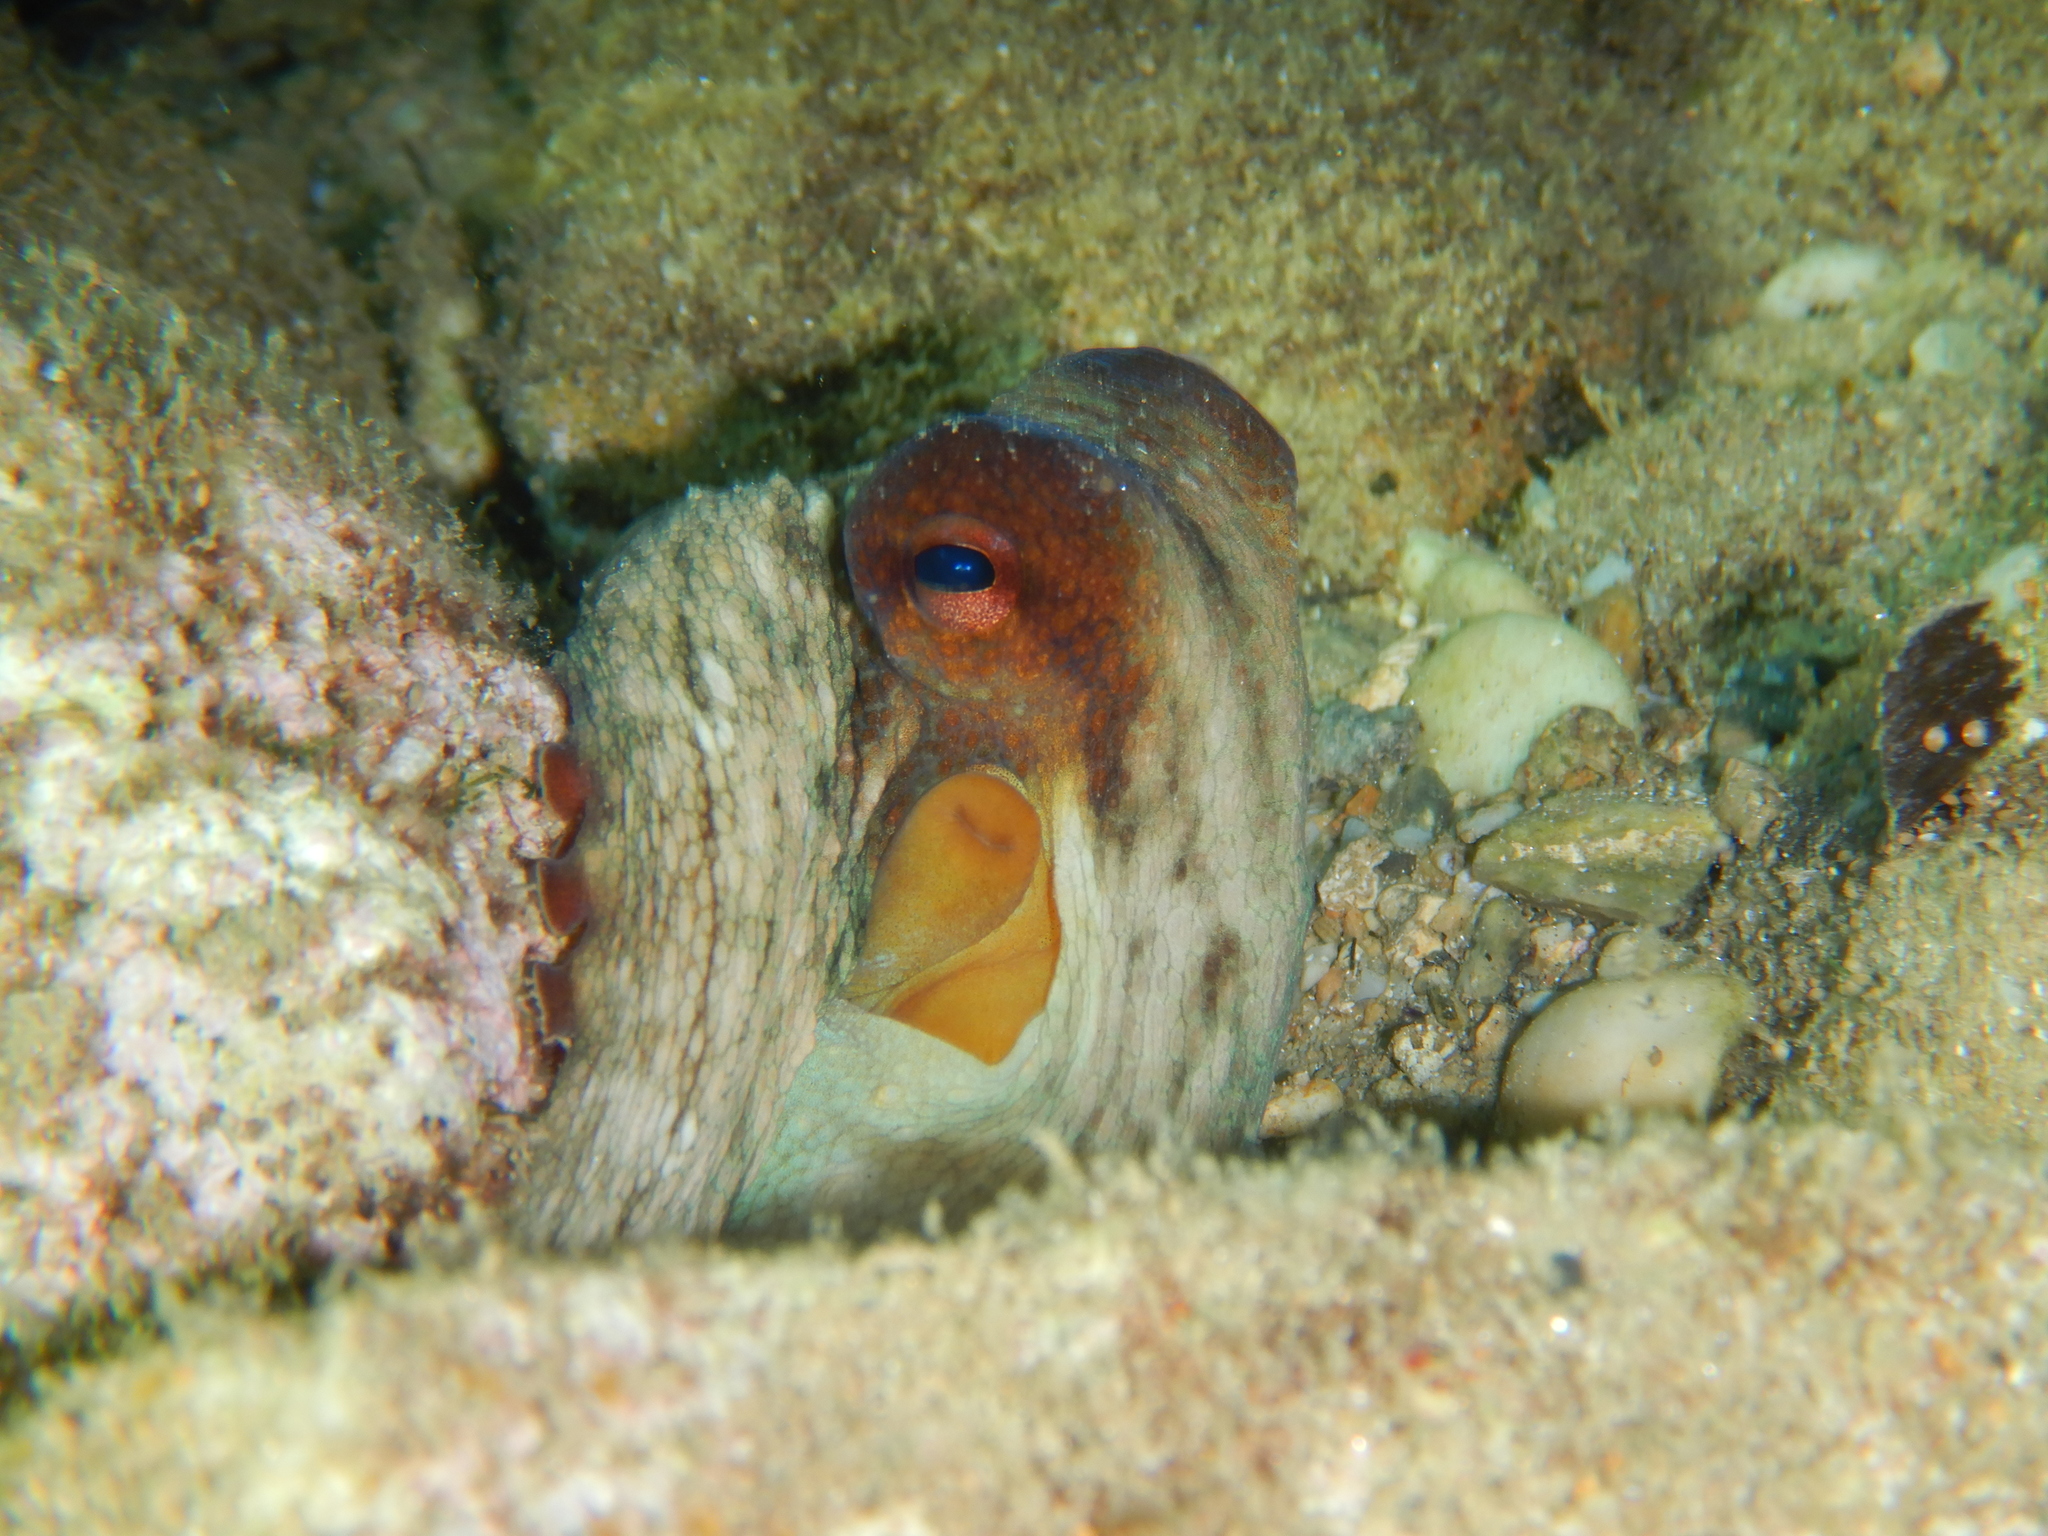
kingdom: Animalia
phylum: Mollusca
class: Cephalopoda
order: Octopoda
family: Octopodidae
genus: Octopus
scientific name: Octopus vulgaris
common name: Common octopus
